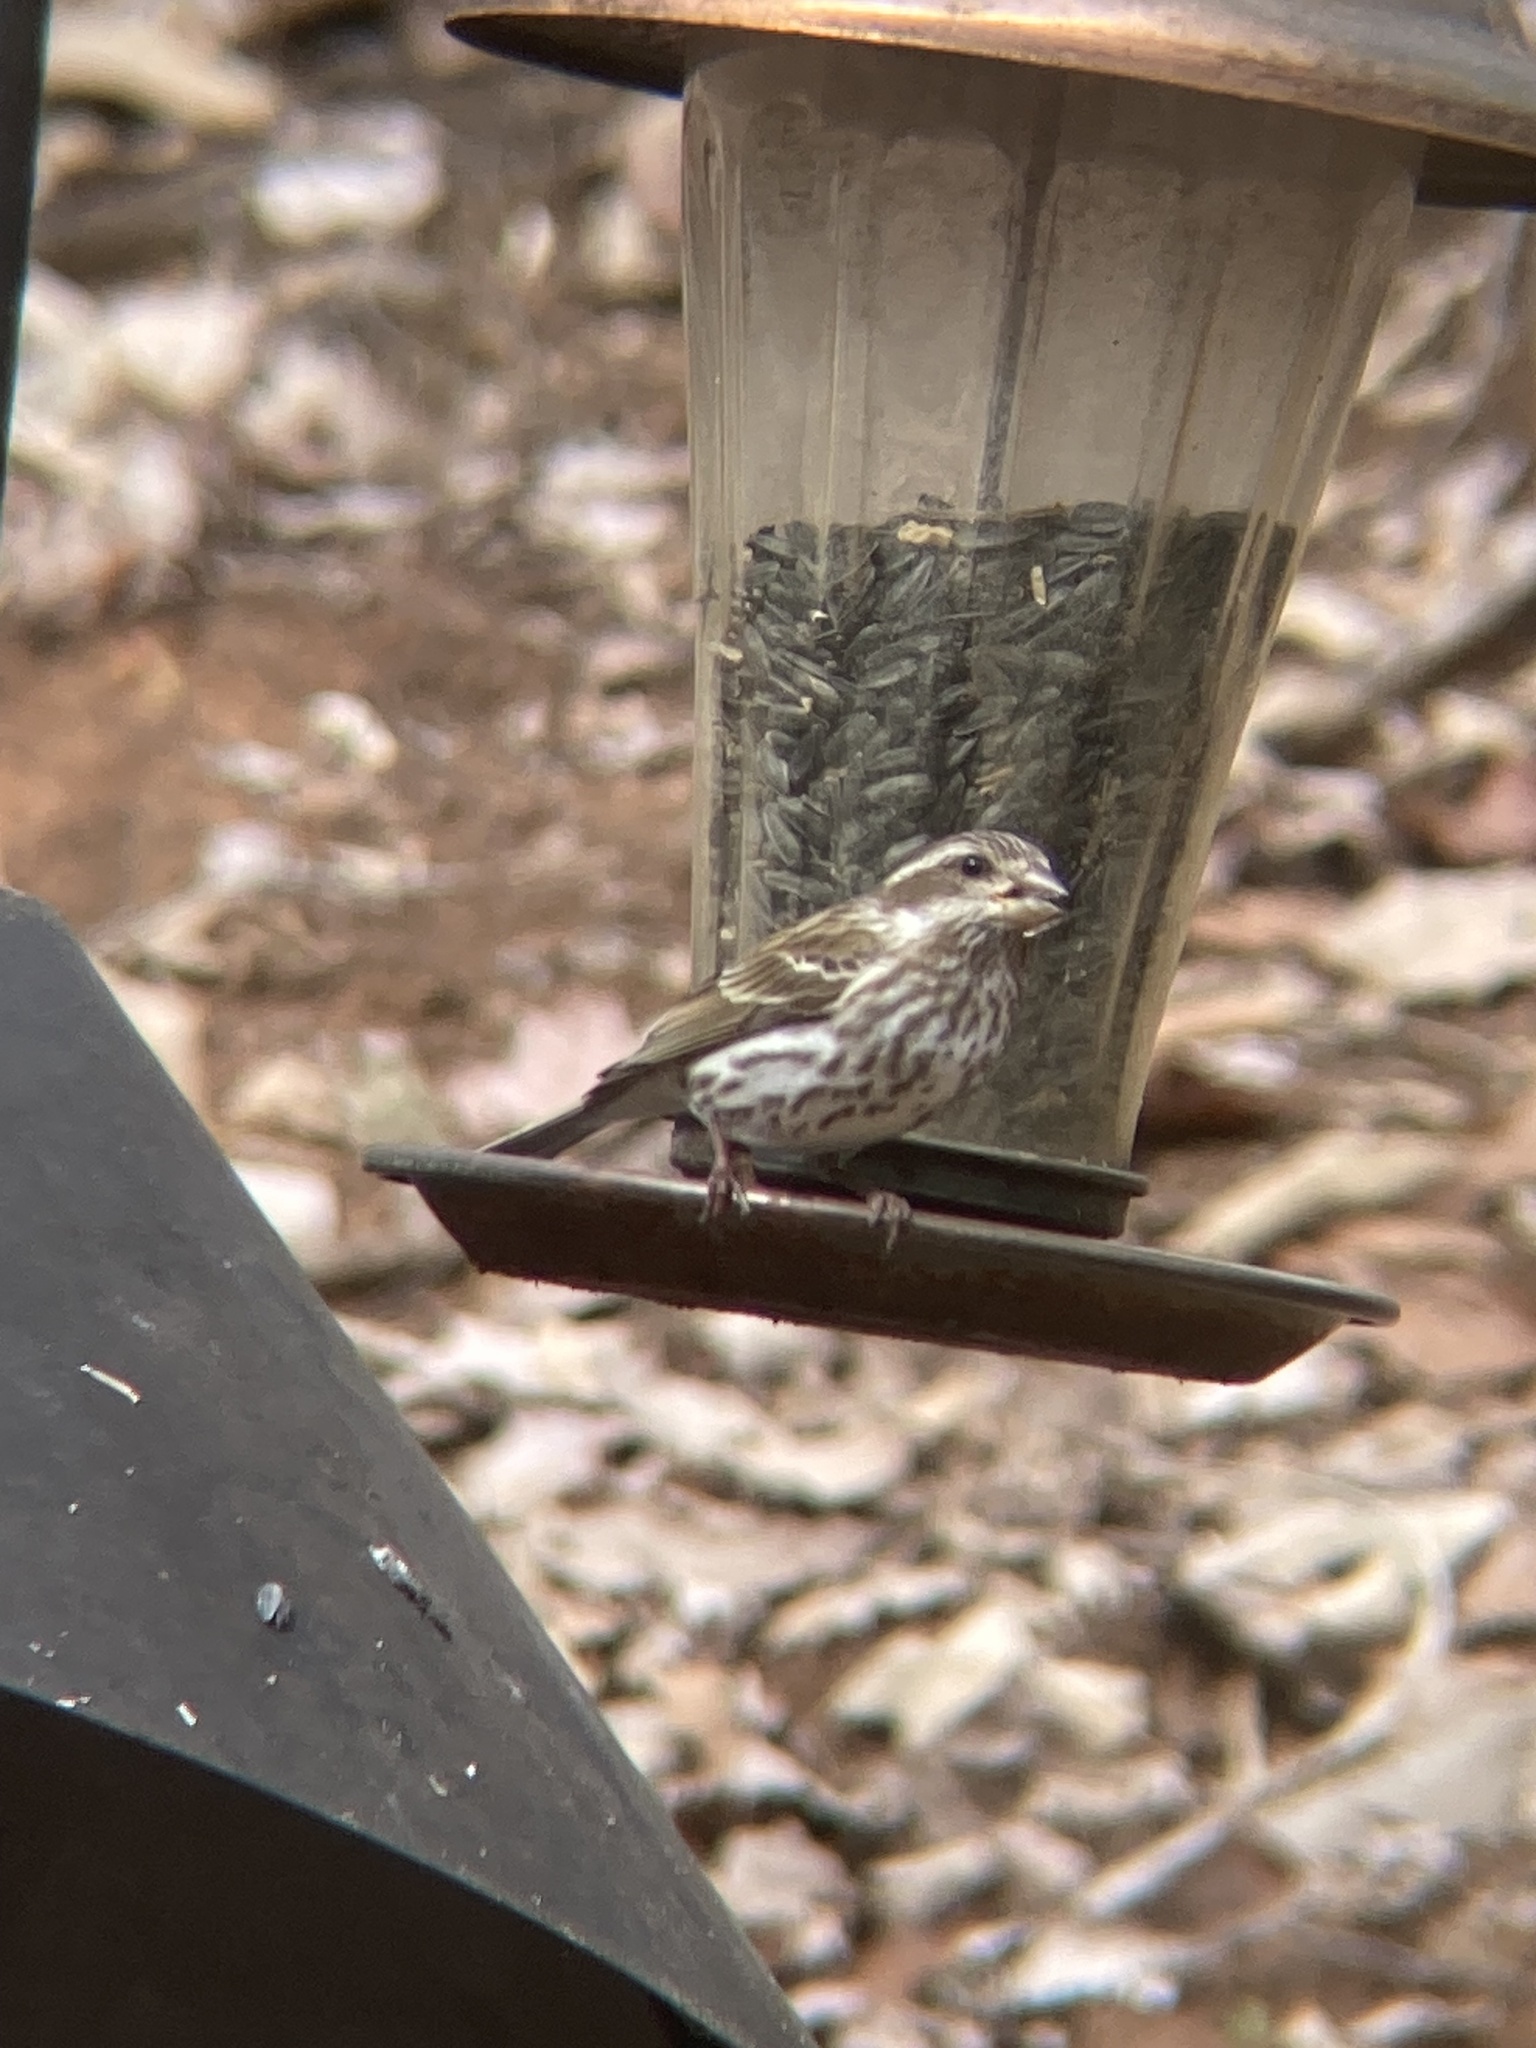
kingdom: Animalia
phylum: Chordata
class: Aves
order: Passeriformes
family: Fringillidae
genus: Haemorhous
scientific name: Haemorhous purpureus
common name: Purple finch
